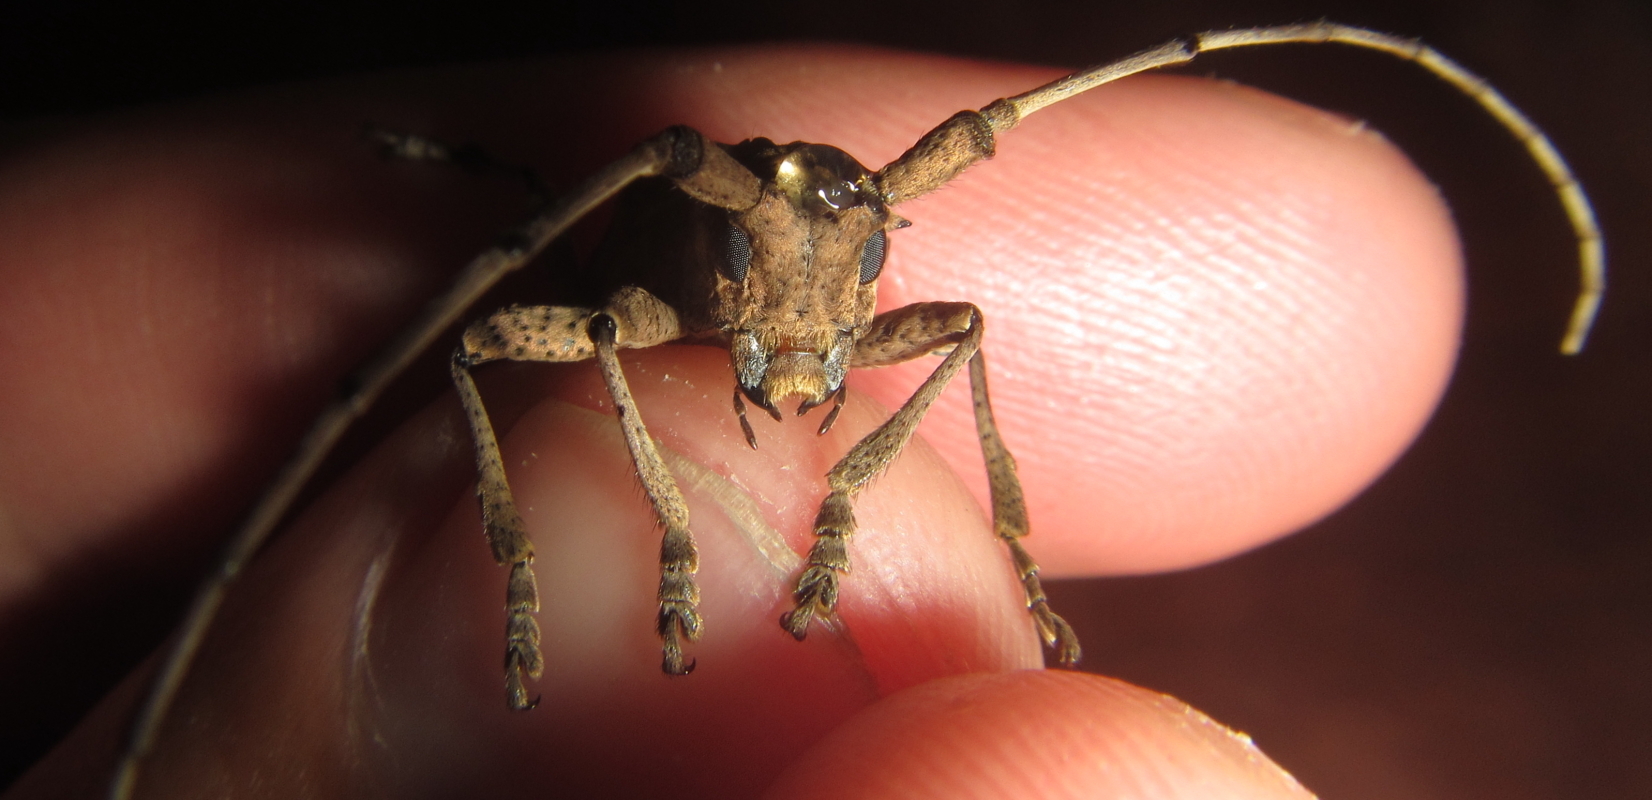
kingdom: Animalia
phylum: Arthropoda
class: Insecta
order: Coleoptera
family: Cerambycidae
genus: Monochamus
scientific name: Monochamus spectabilis
